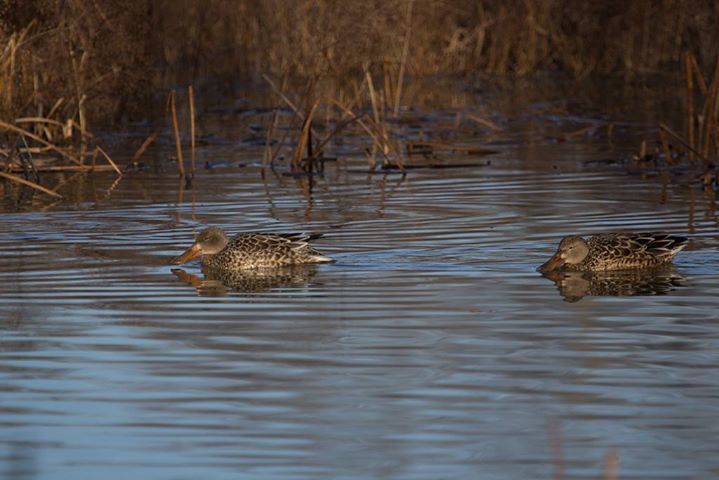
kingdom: Animalia
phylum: Chordata
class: Aves
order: Anseriformes
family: Anatidae
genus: Spatula
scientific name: Spatula clypeata
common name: Northern shoveler
